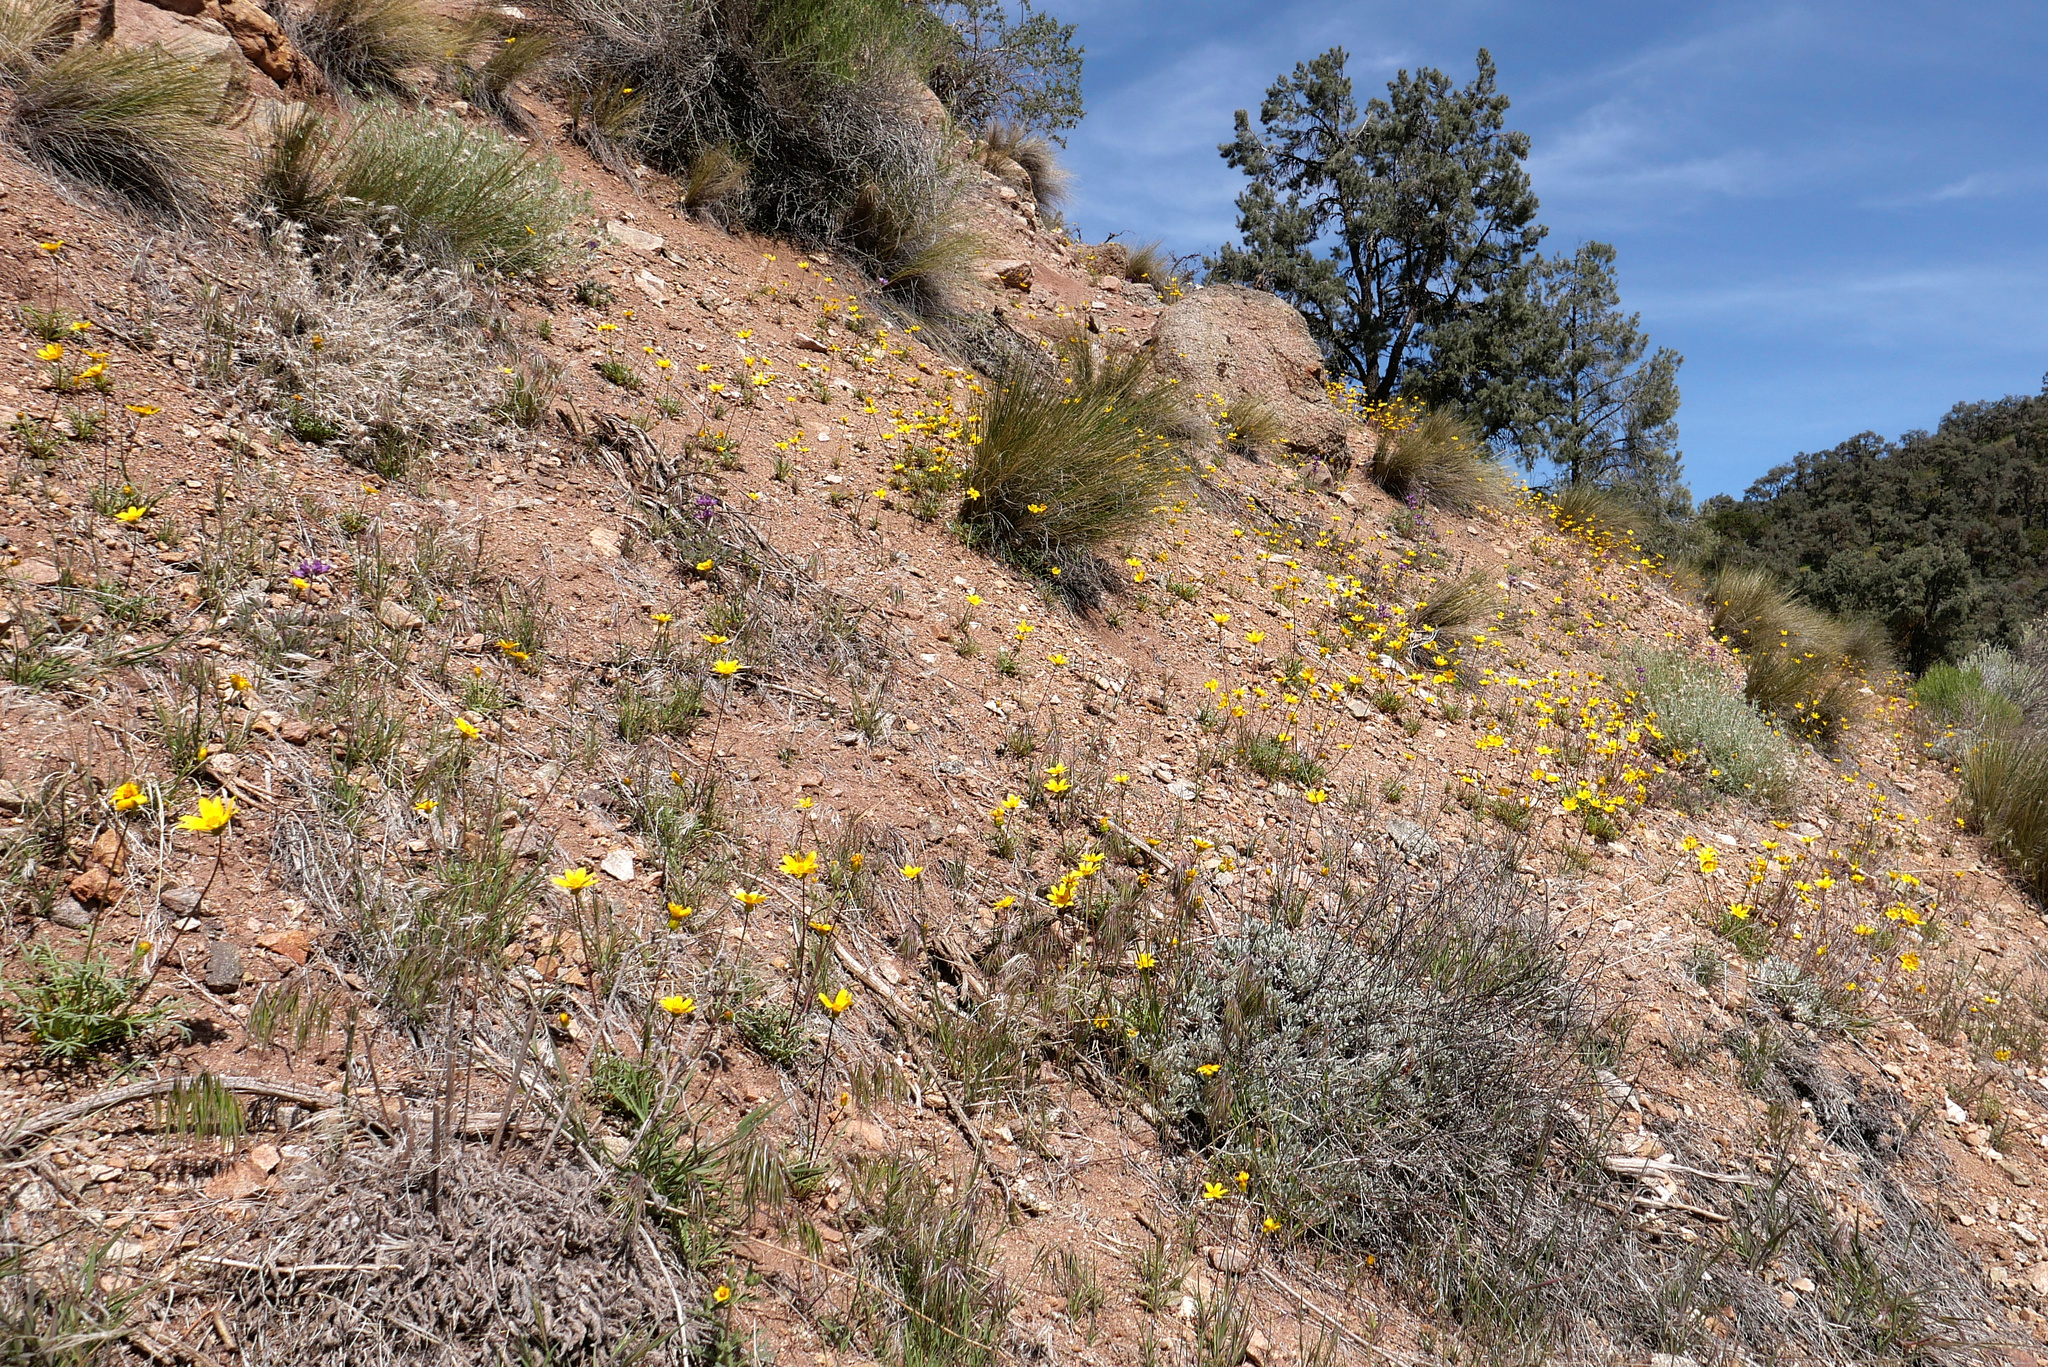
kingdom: Plantae
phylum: Tracheophyta
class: Magnoliopsida
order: Asterales
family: Asteraceae
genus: Coreopsis
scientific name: Coreopsis bigelovii
